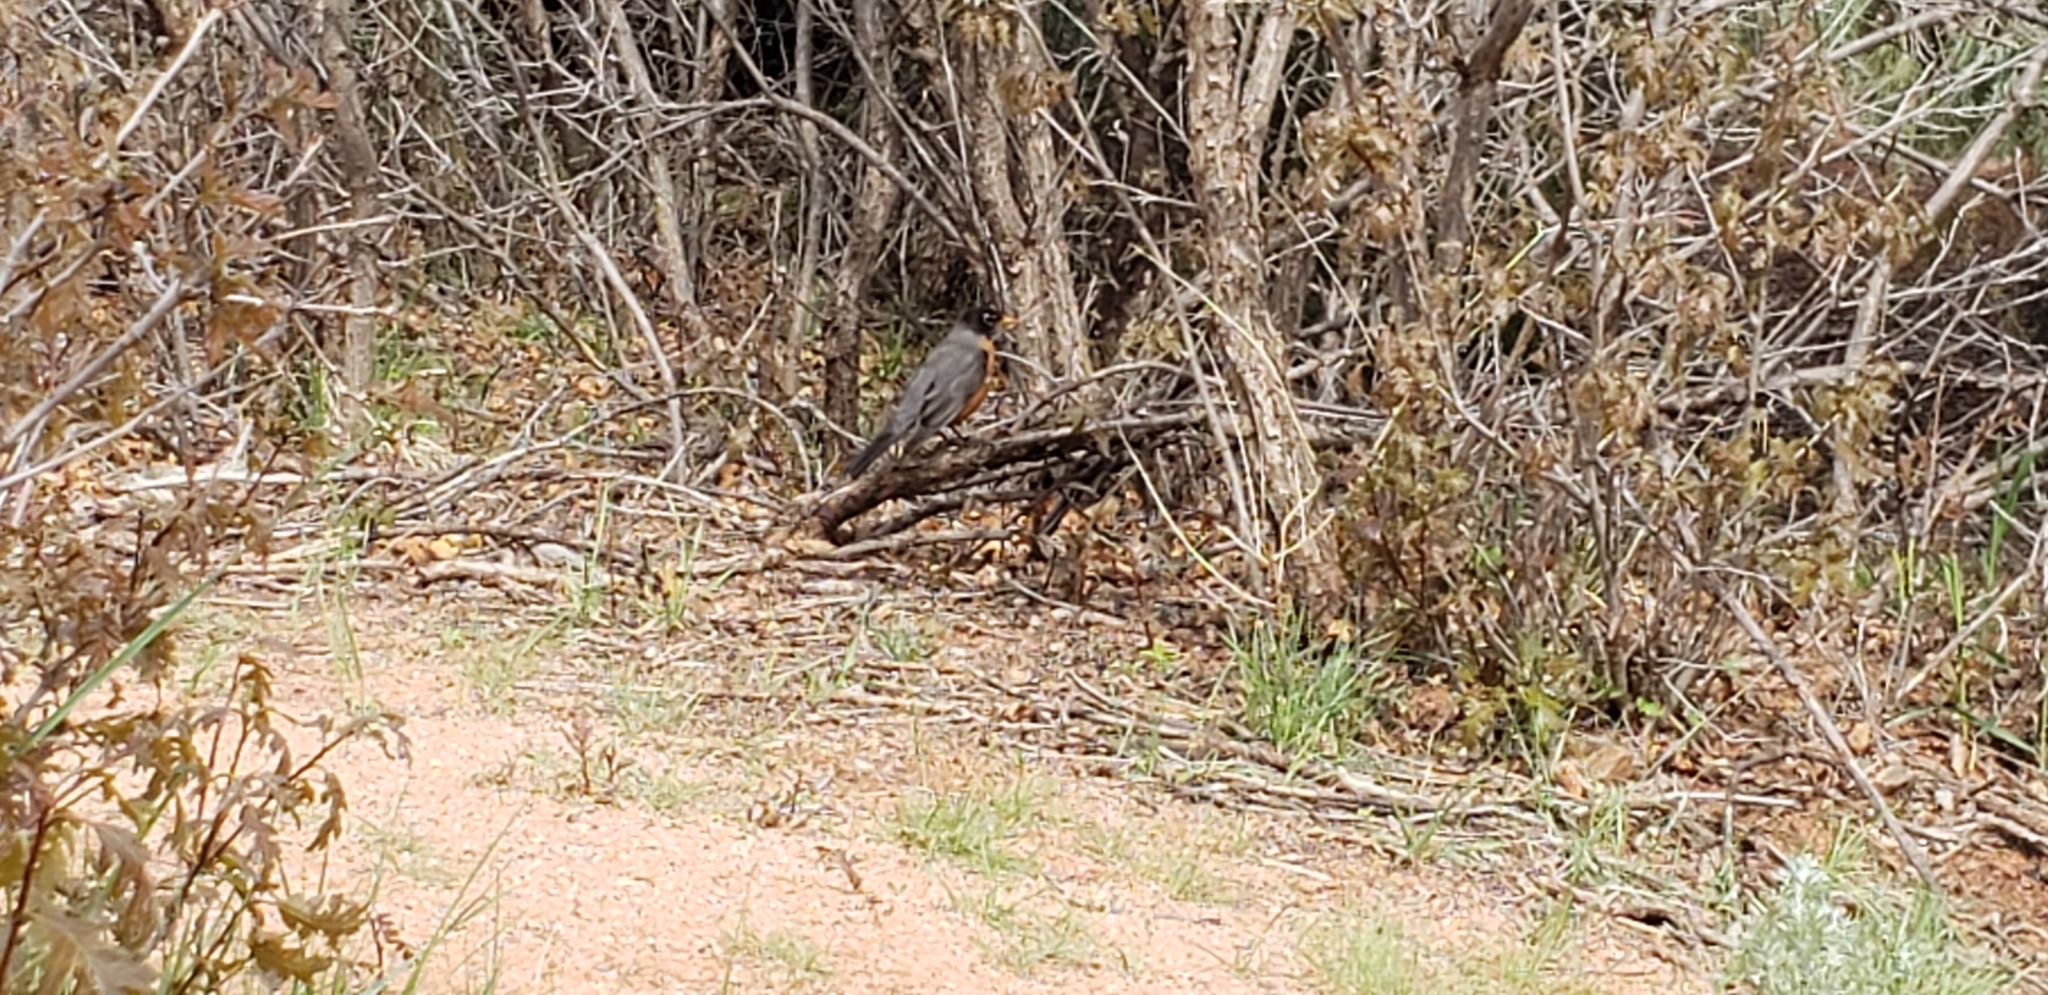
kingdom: Animalia
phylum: Chordata
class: Aves
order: Passeriformes
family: Turdidae
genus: Turdus
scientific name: Turdus migratorius
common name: American robin
